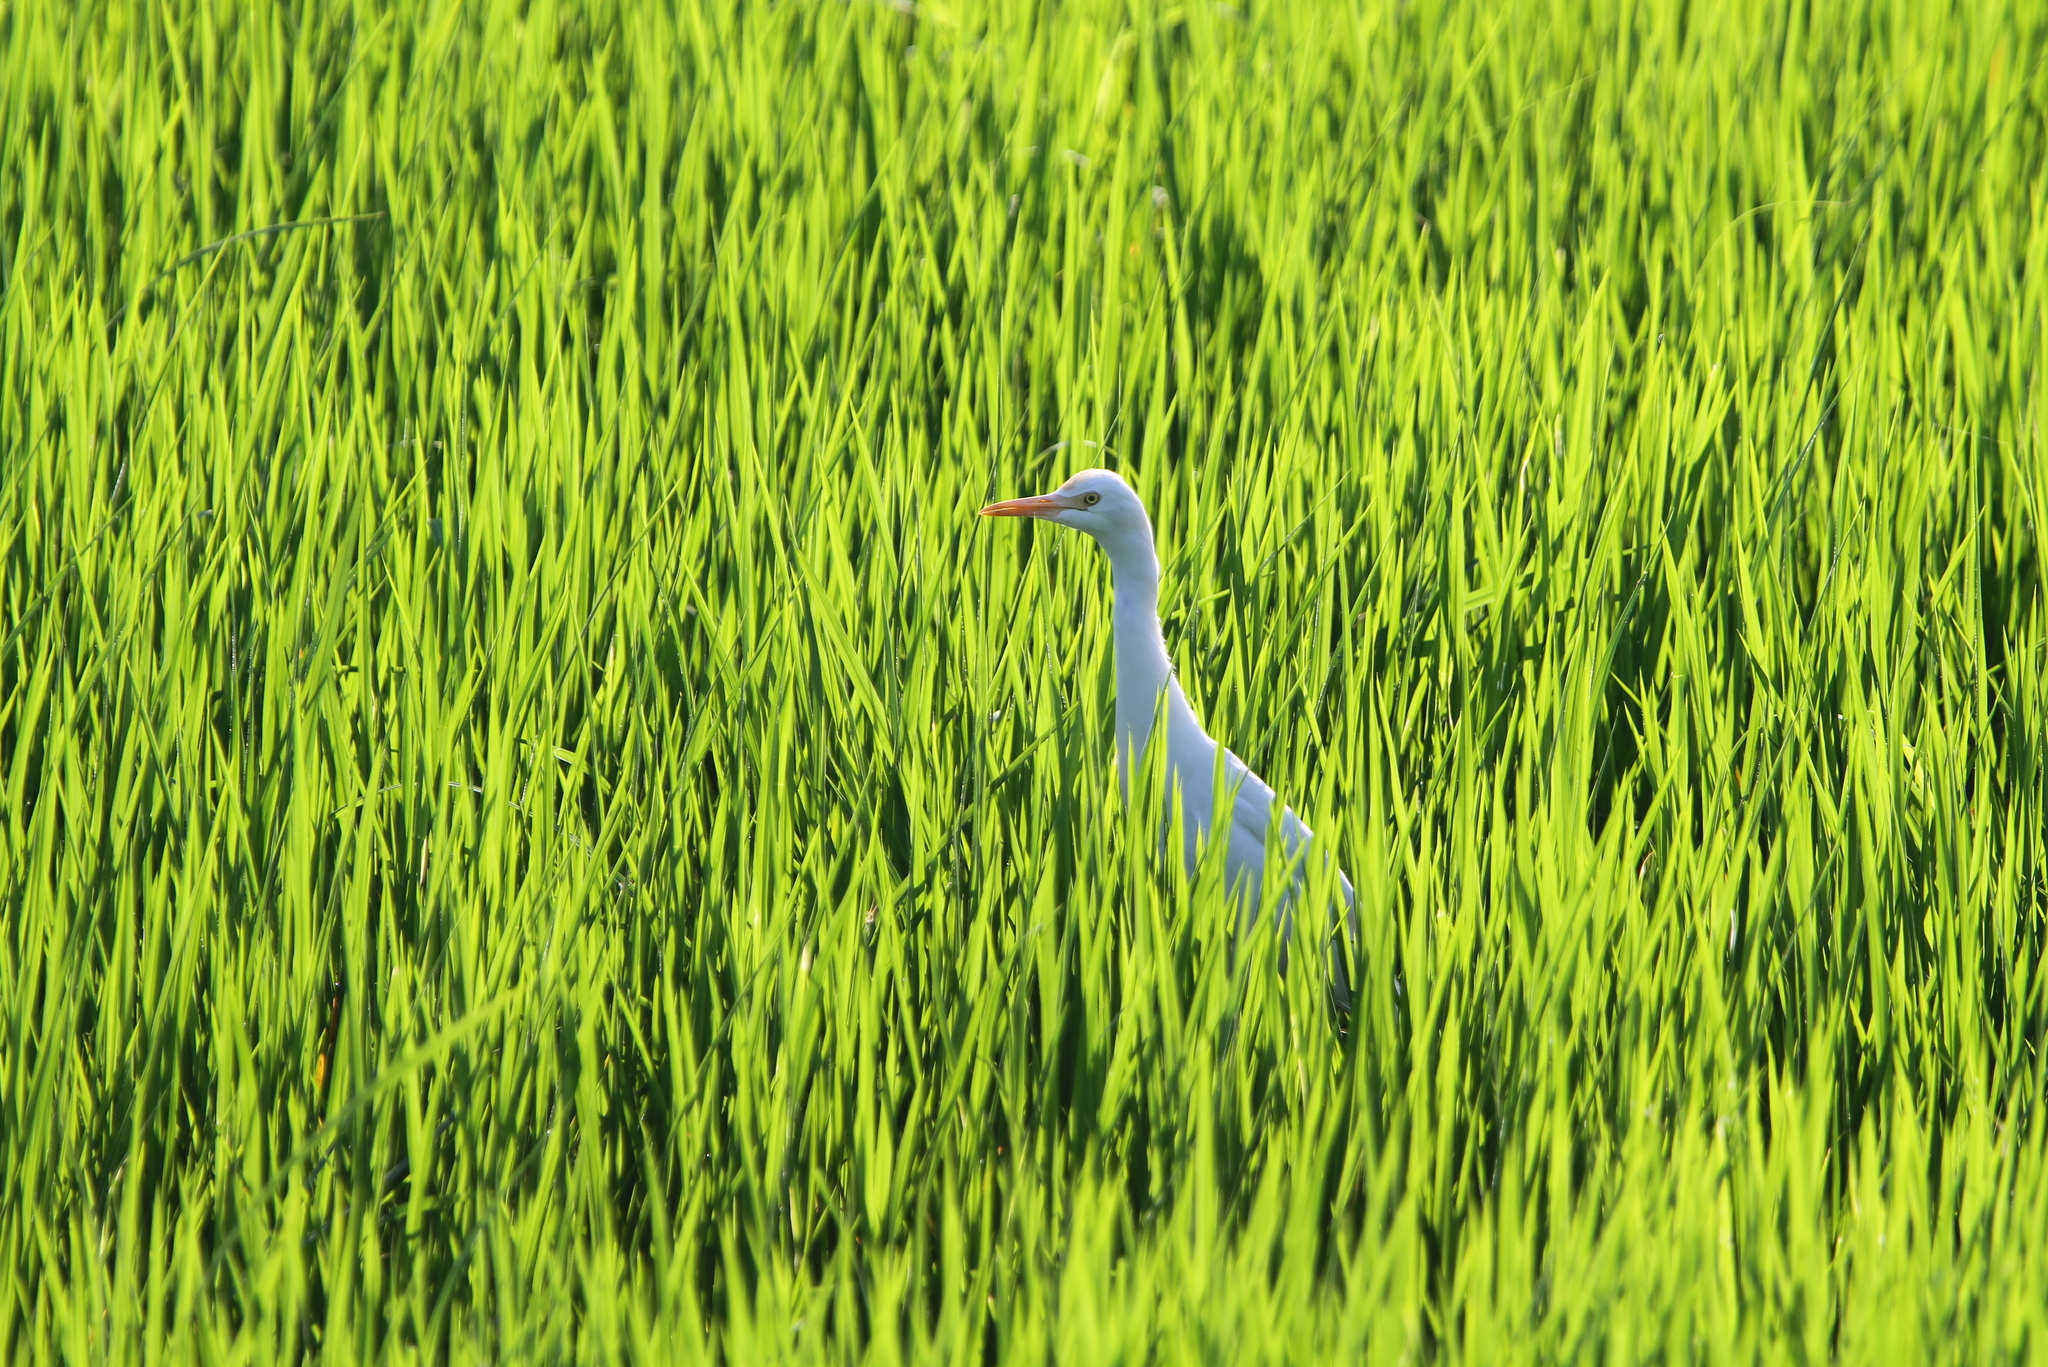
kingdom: Animalia
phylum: Chordata
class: Aves
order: Pelecaniformes
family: Ardeidae
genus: Bubulcus
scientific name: Bubulcus coromandus
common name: Eastern cattle egret
